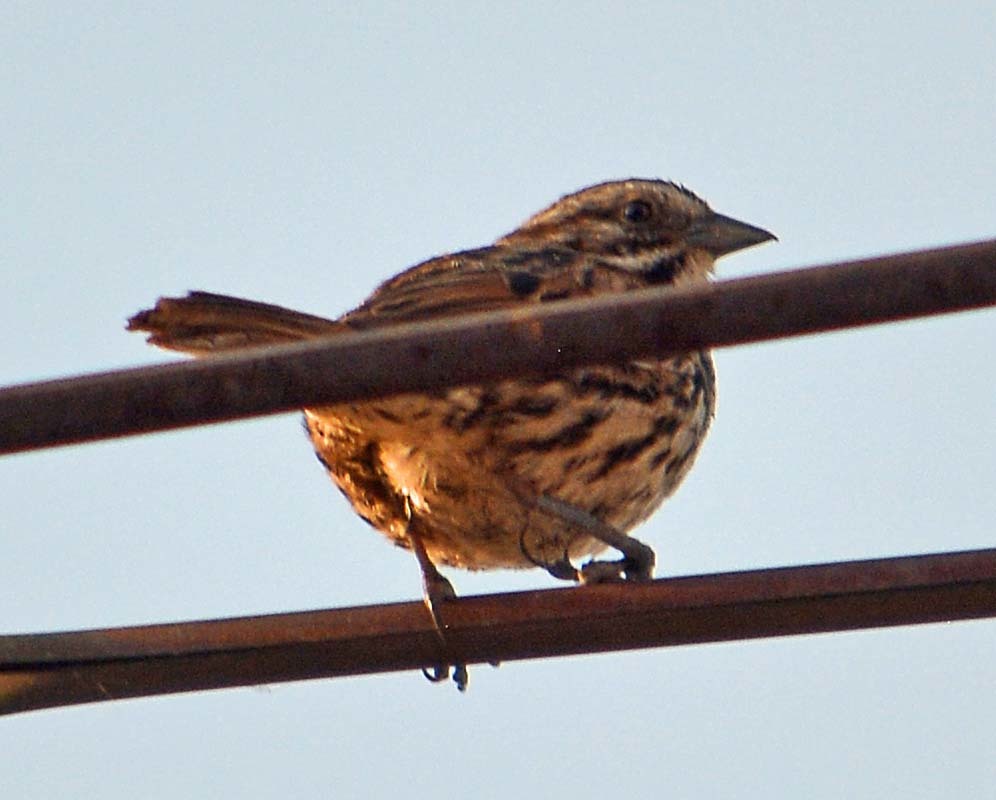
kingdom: Animalia
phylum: Chordata
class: Aves
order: Passeriformes
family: Passerellidae
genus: Melospiza
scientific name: Melospiza melodia
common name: Song sparrow
